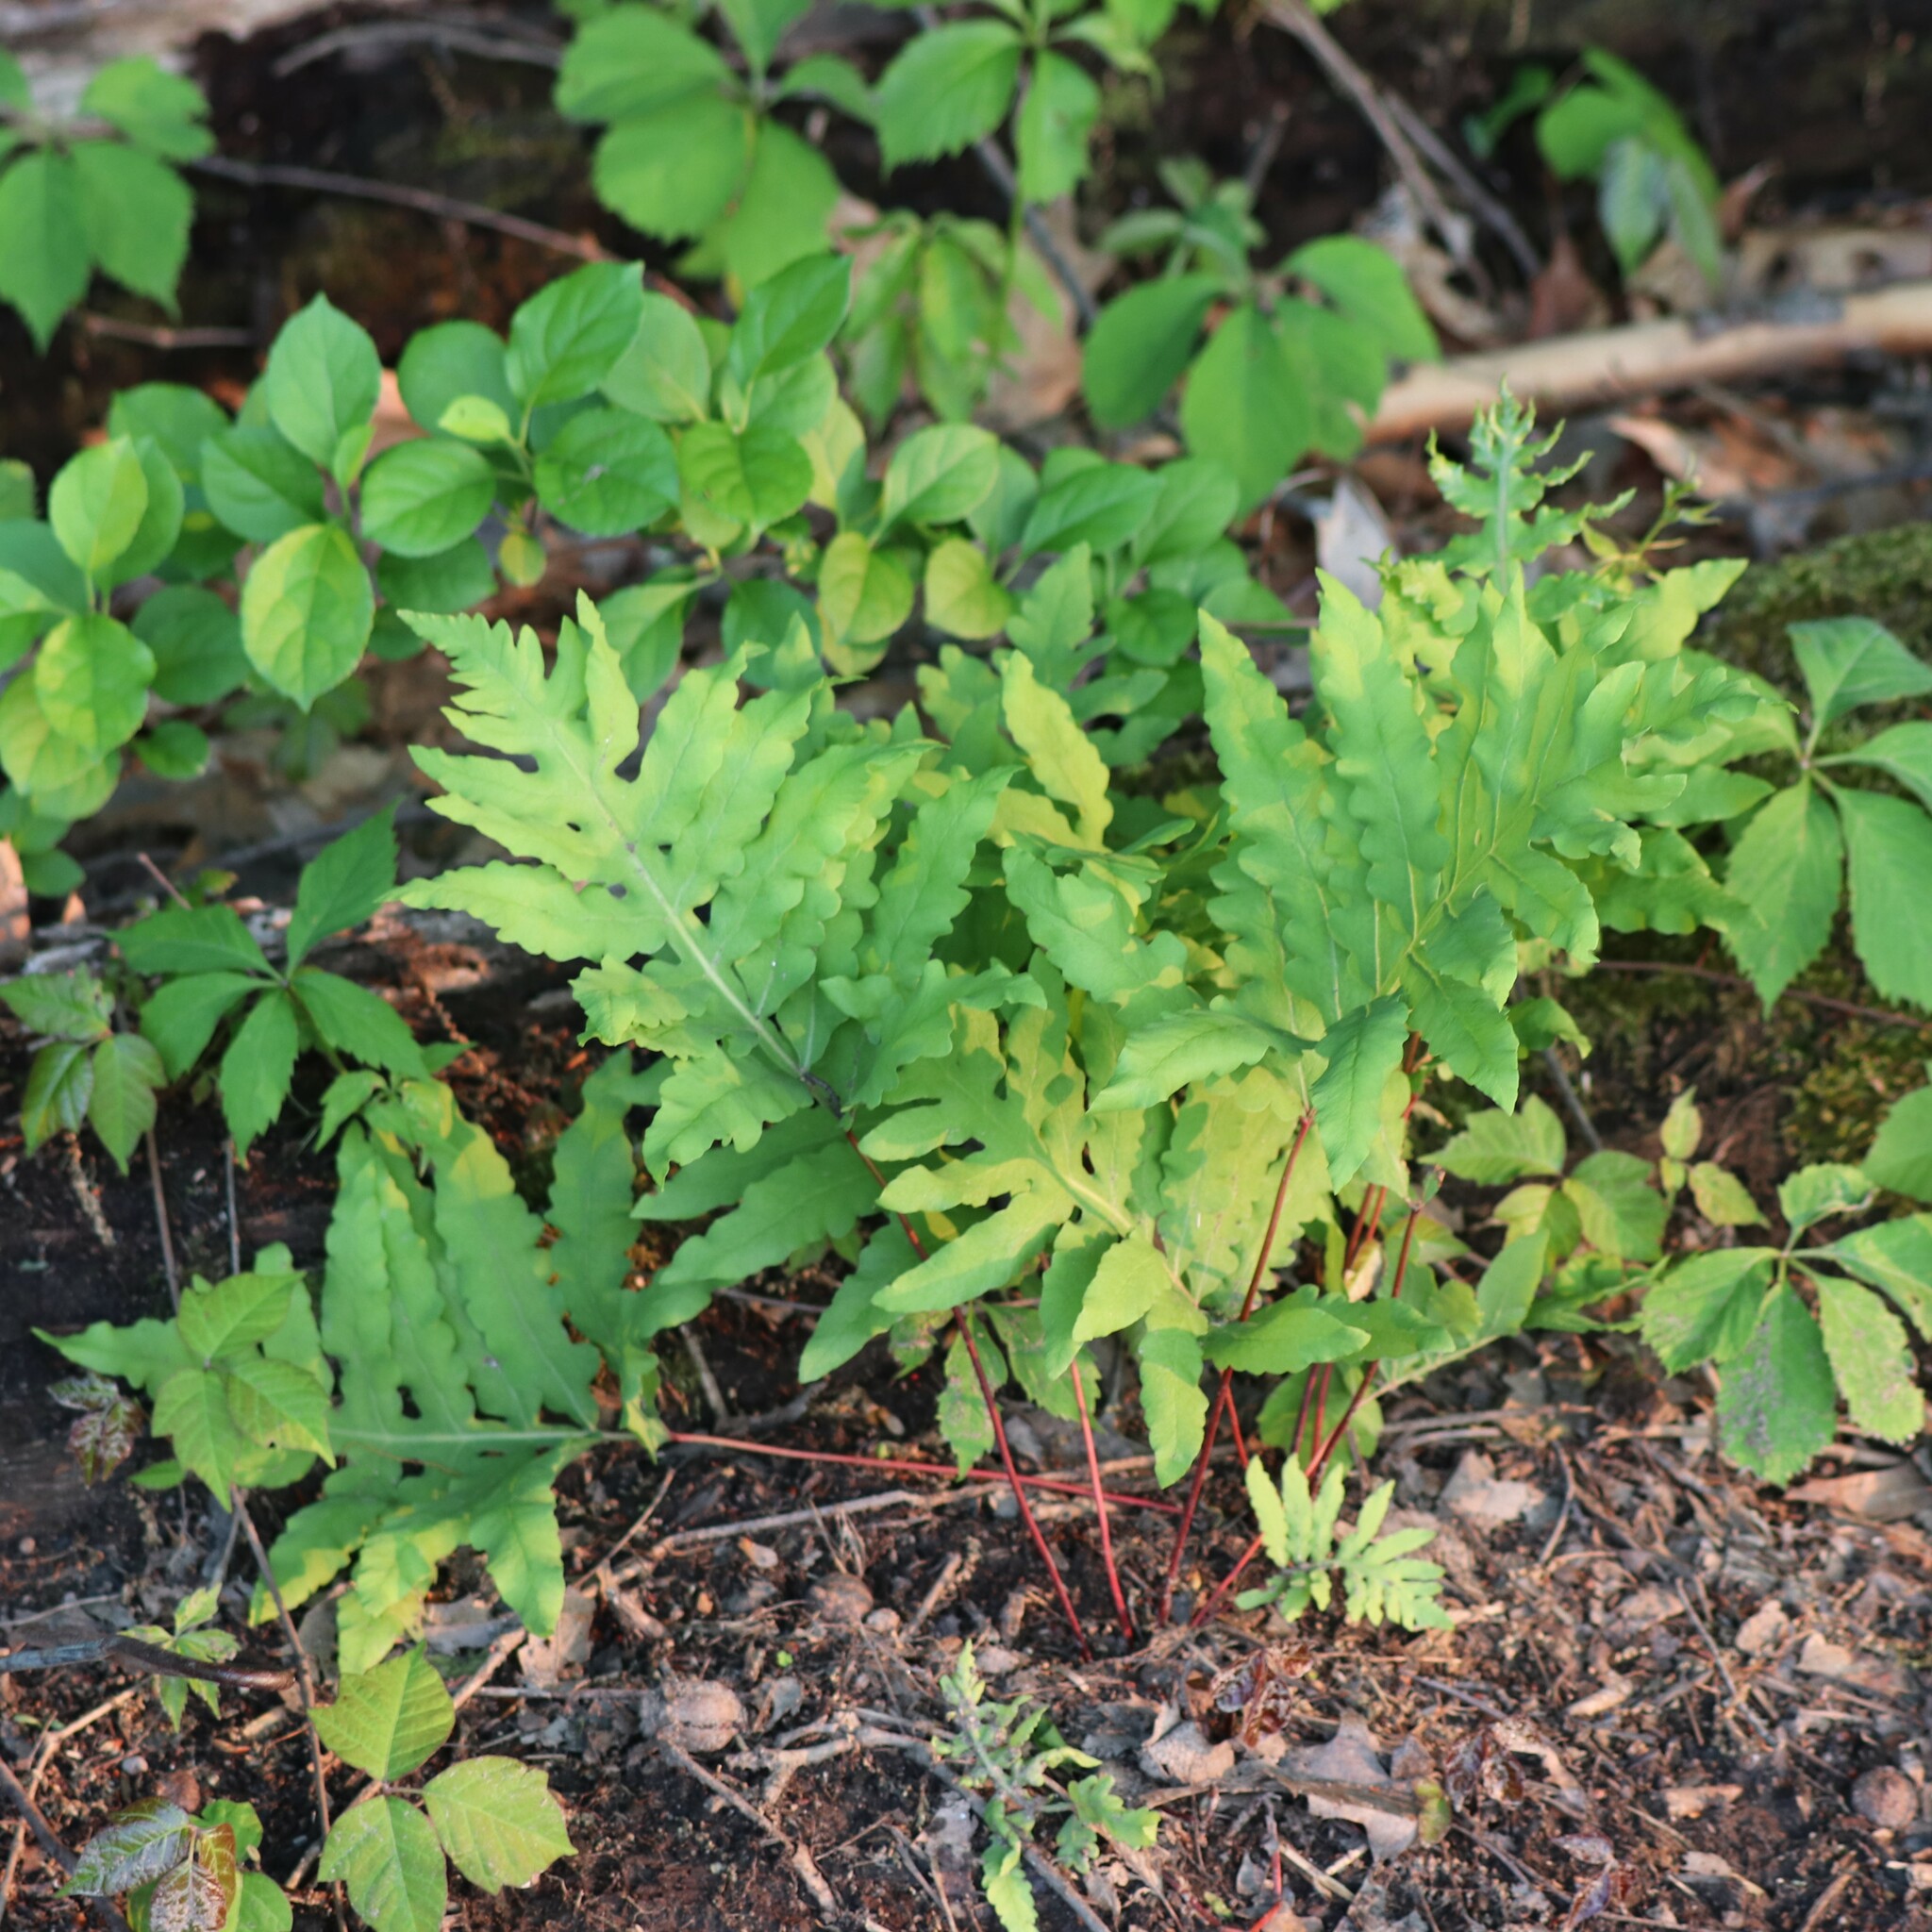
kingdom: Plantae
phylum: Tracheophyta
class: Polypodiopsida
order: Polypodiales
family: Onocleaceae
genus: Onoclea
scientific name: Onoclea sensibilis
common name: Sensitive fern
